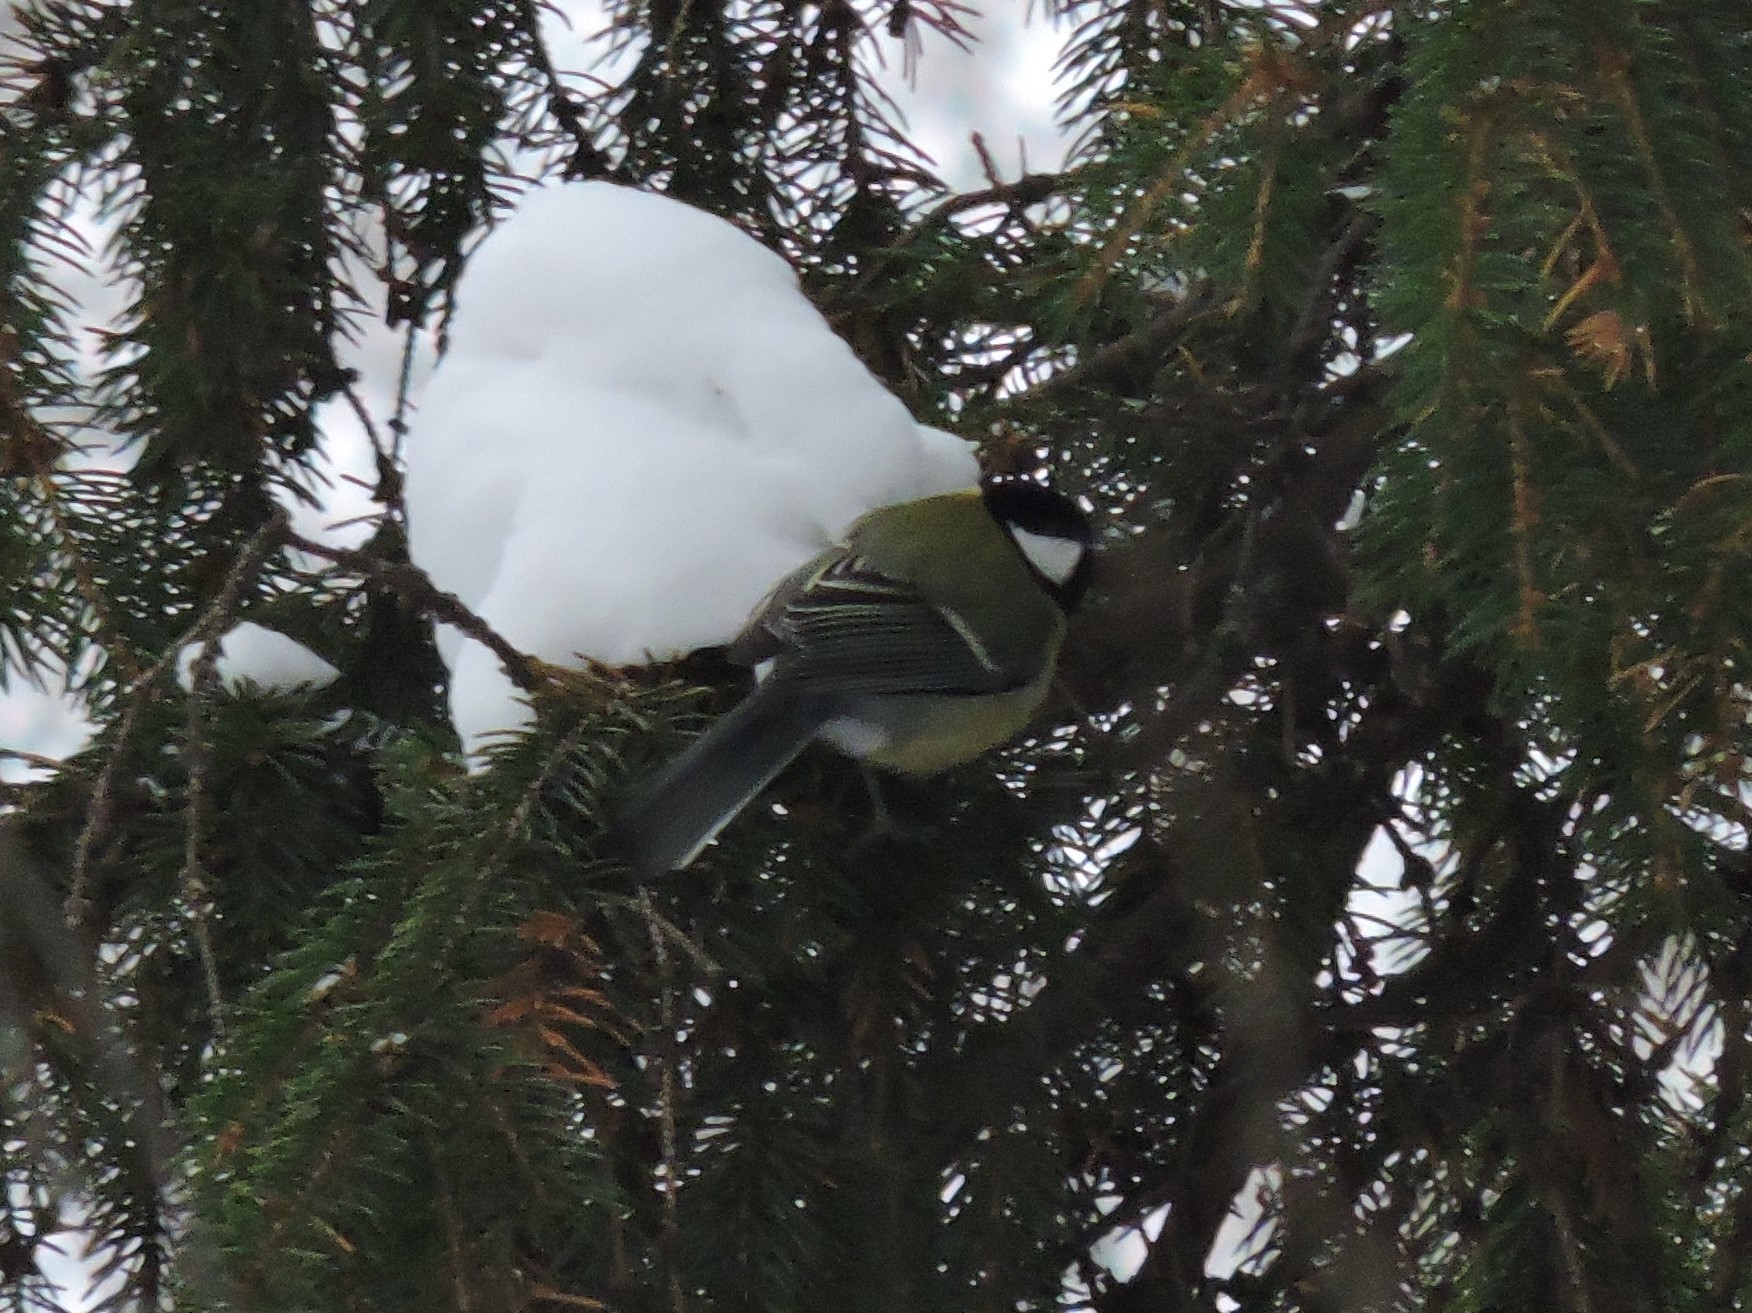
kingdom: Animalia
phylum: Chordata
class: Aves
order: Passeriformes
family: Paridae
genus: Parus
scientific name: Parus major
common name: Great tit
